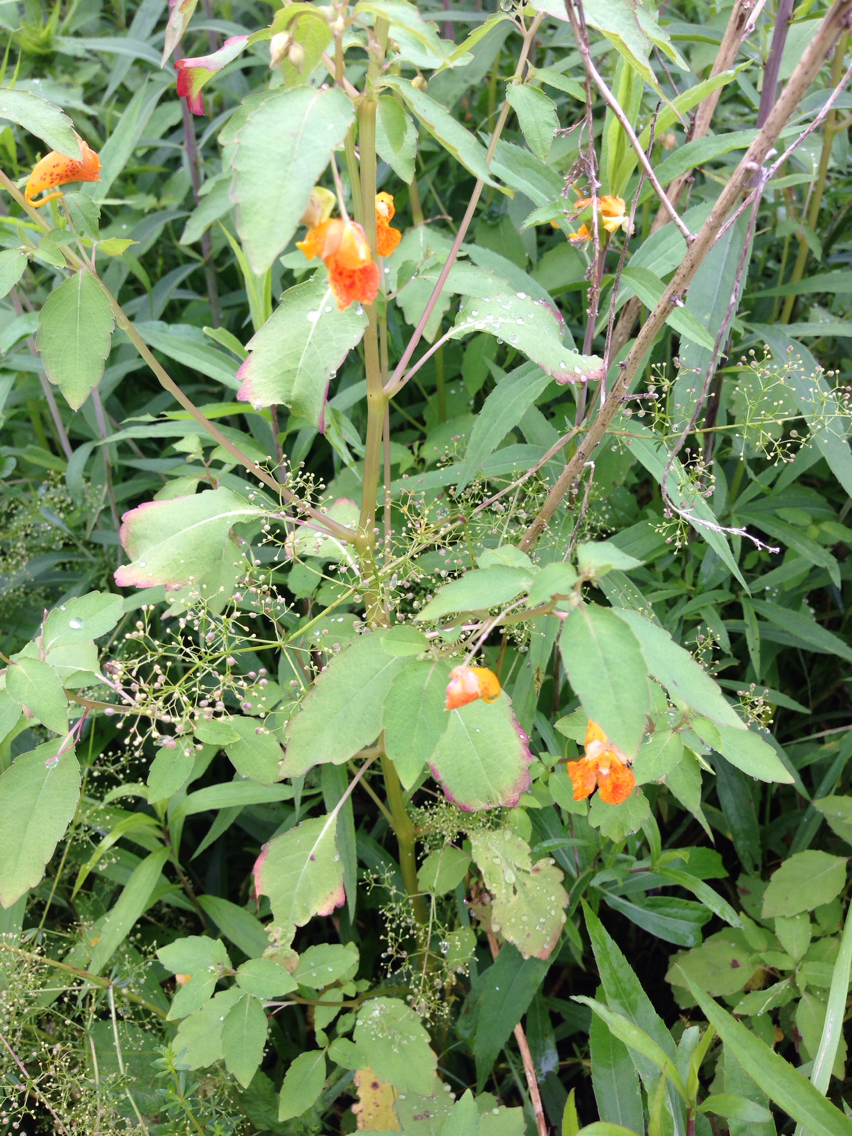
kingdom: Plantae
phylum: Tracheophyta
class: Magnoliopsida
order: Ericales
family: Balsaminaceae
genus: Impatiens
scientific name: Impatiens capensis
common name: Orange balsam
